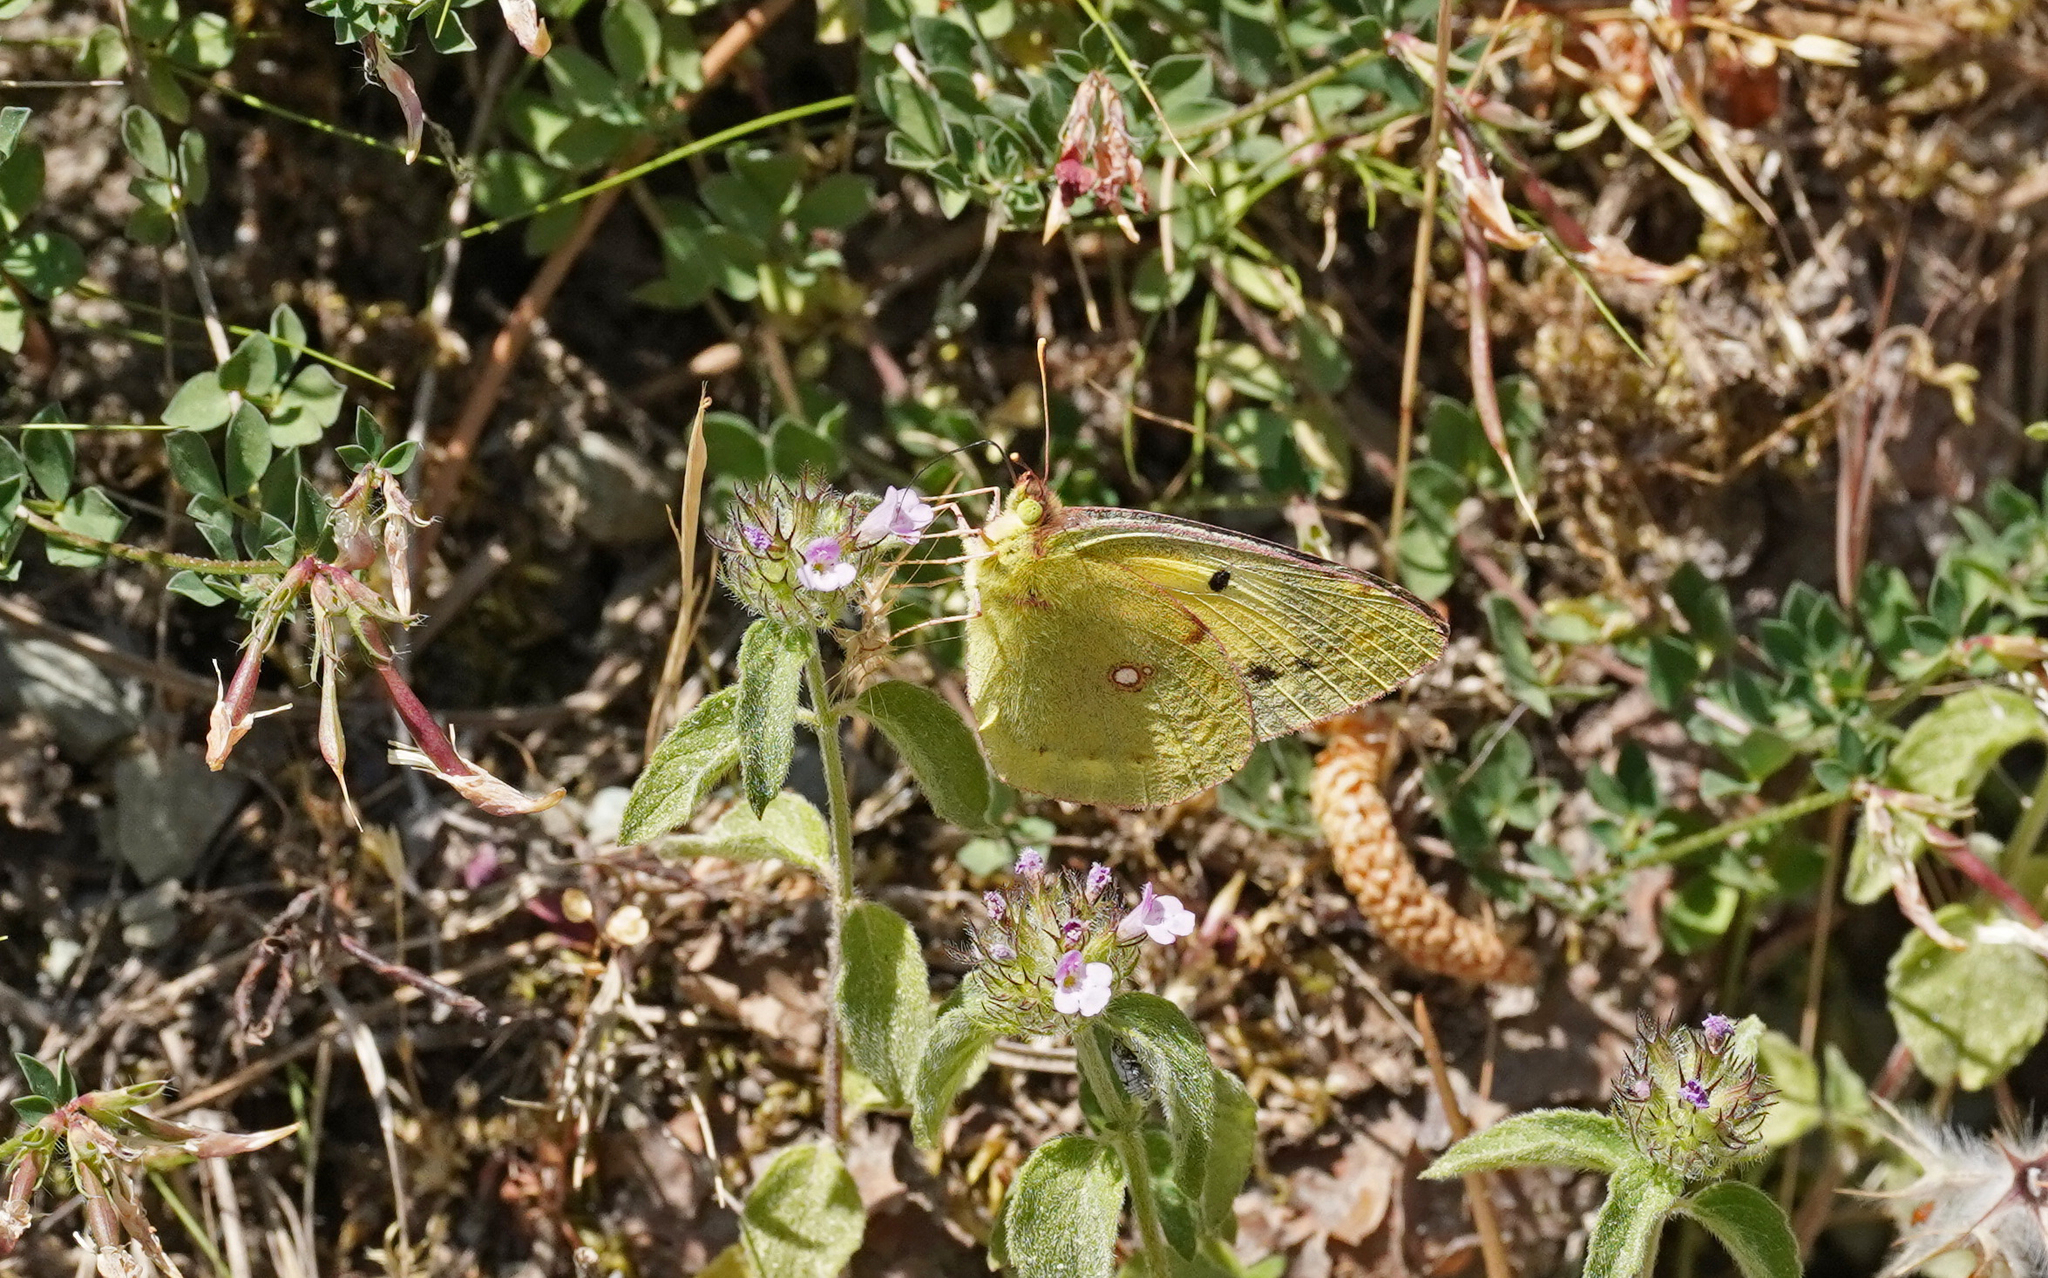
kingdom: Animalia
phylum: Arthropoda
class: Insecta
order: Lepidoptera
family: Pieridae
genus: Colias
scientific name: Colias croceus
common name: Clouded yellow
